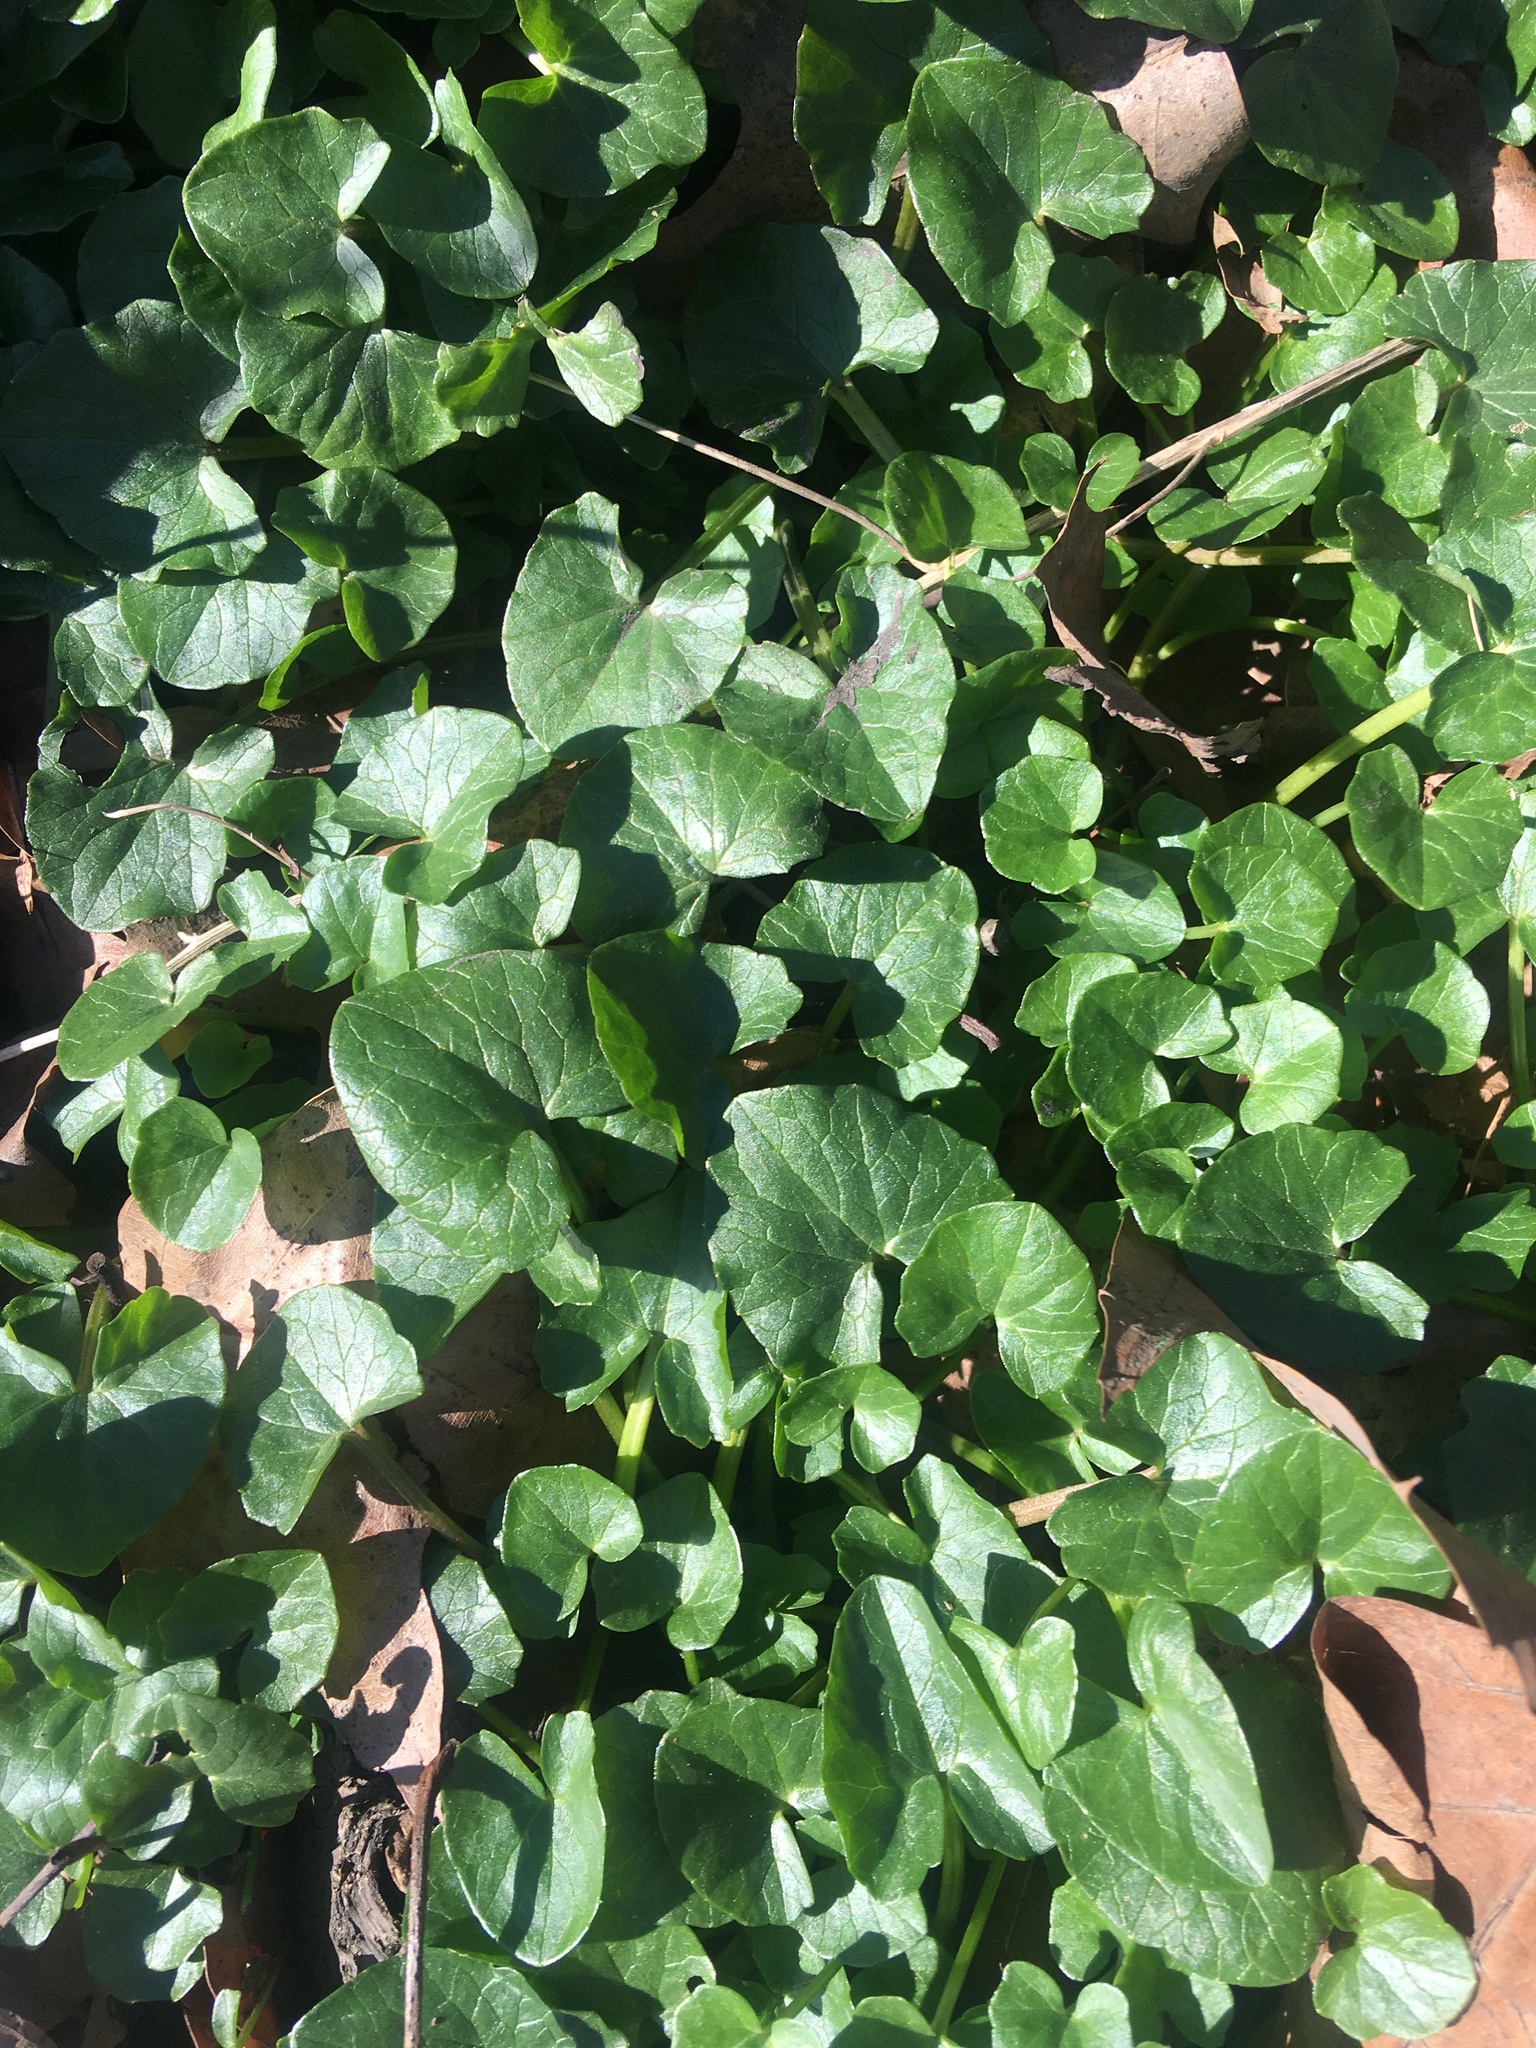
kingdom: Plantae
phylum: Tracheophyta
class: Magnoliopsida
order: Ranunculales
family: Ranunculaceae
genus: Ficaria
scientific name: Ficaria verna
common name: Lesser celandine
